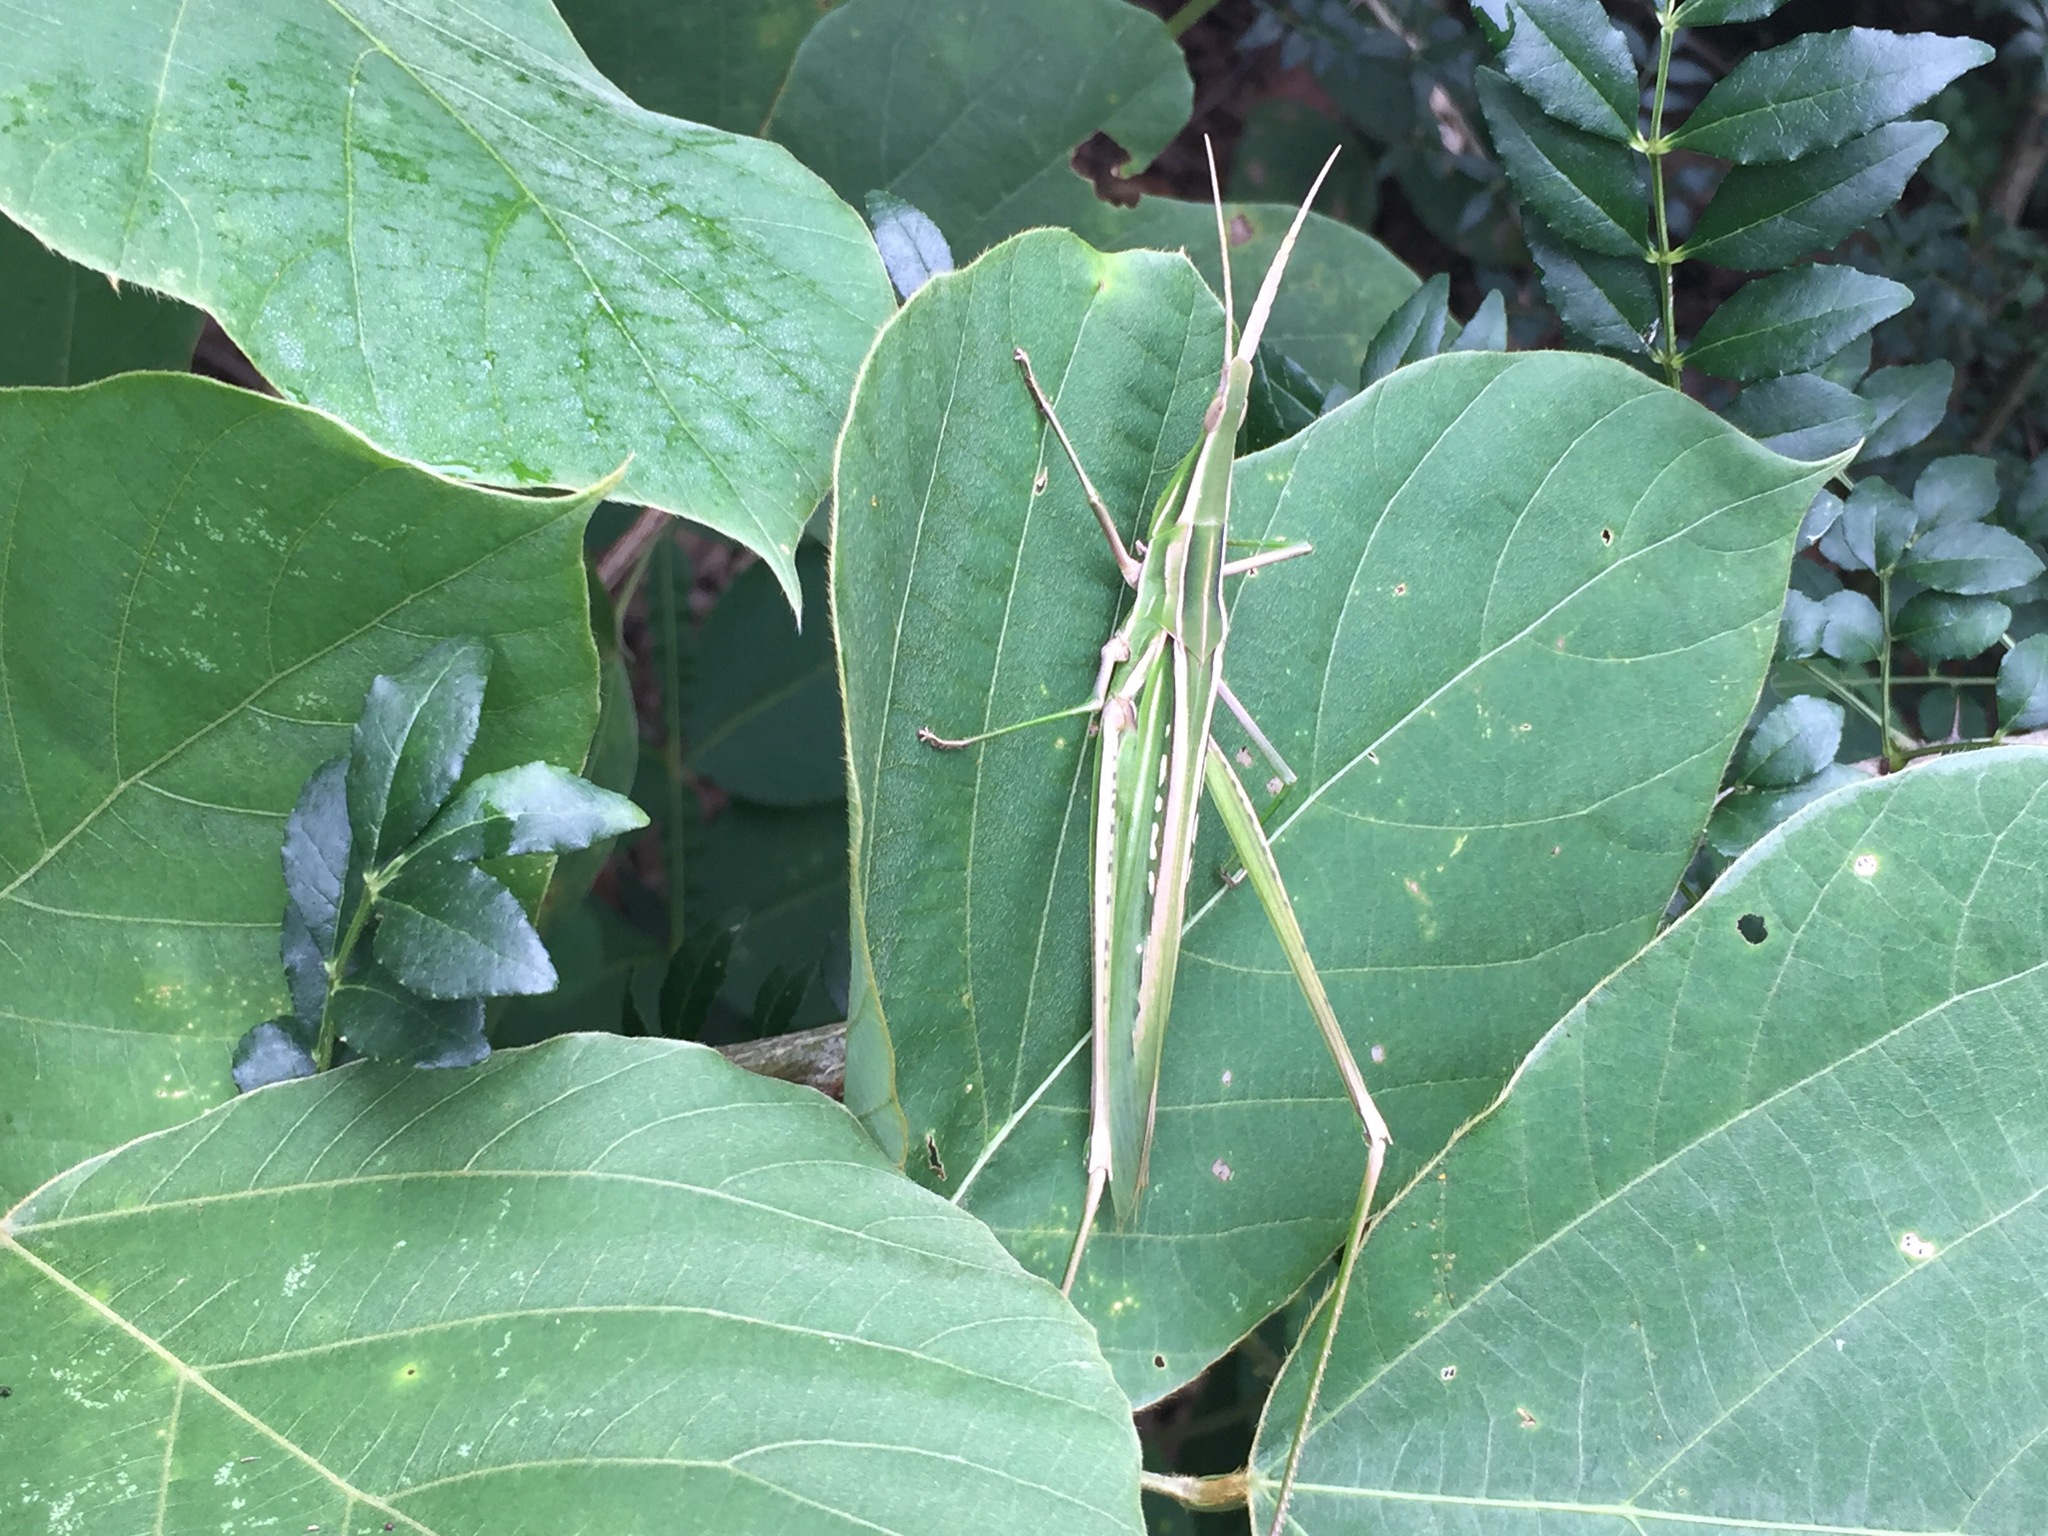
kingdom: Animalia
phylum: Arthropoda
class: Insecta
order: Orthoptera
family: Acrididae
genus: Acrida
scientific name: Acrida cinerea
